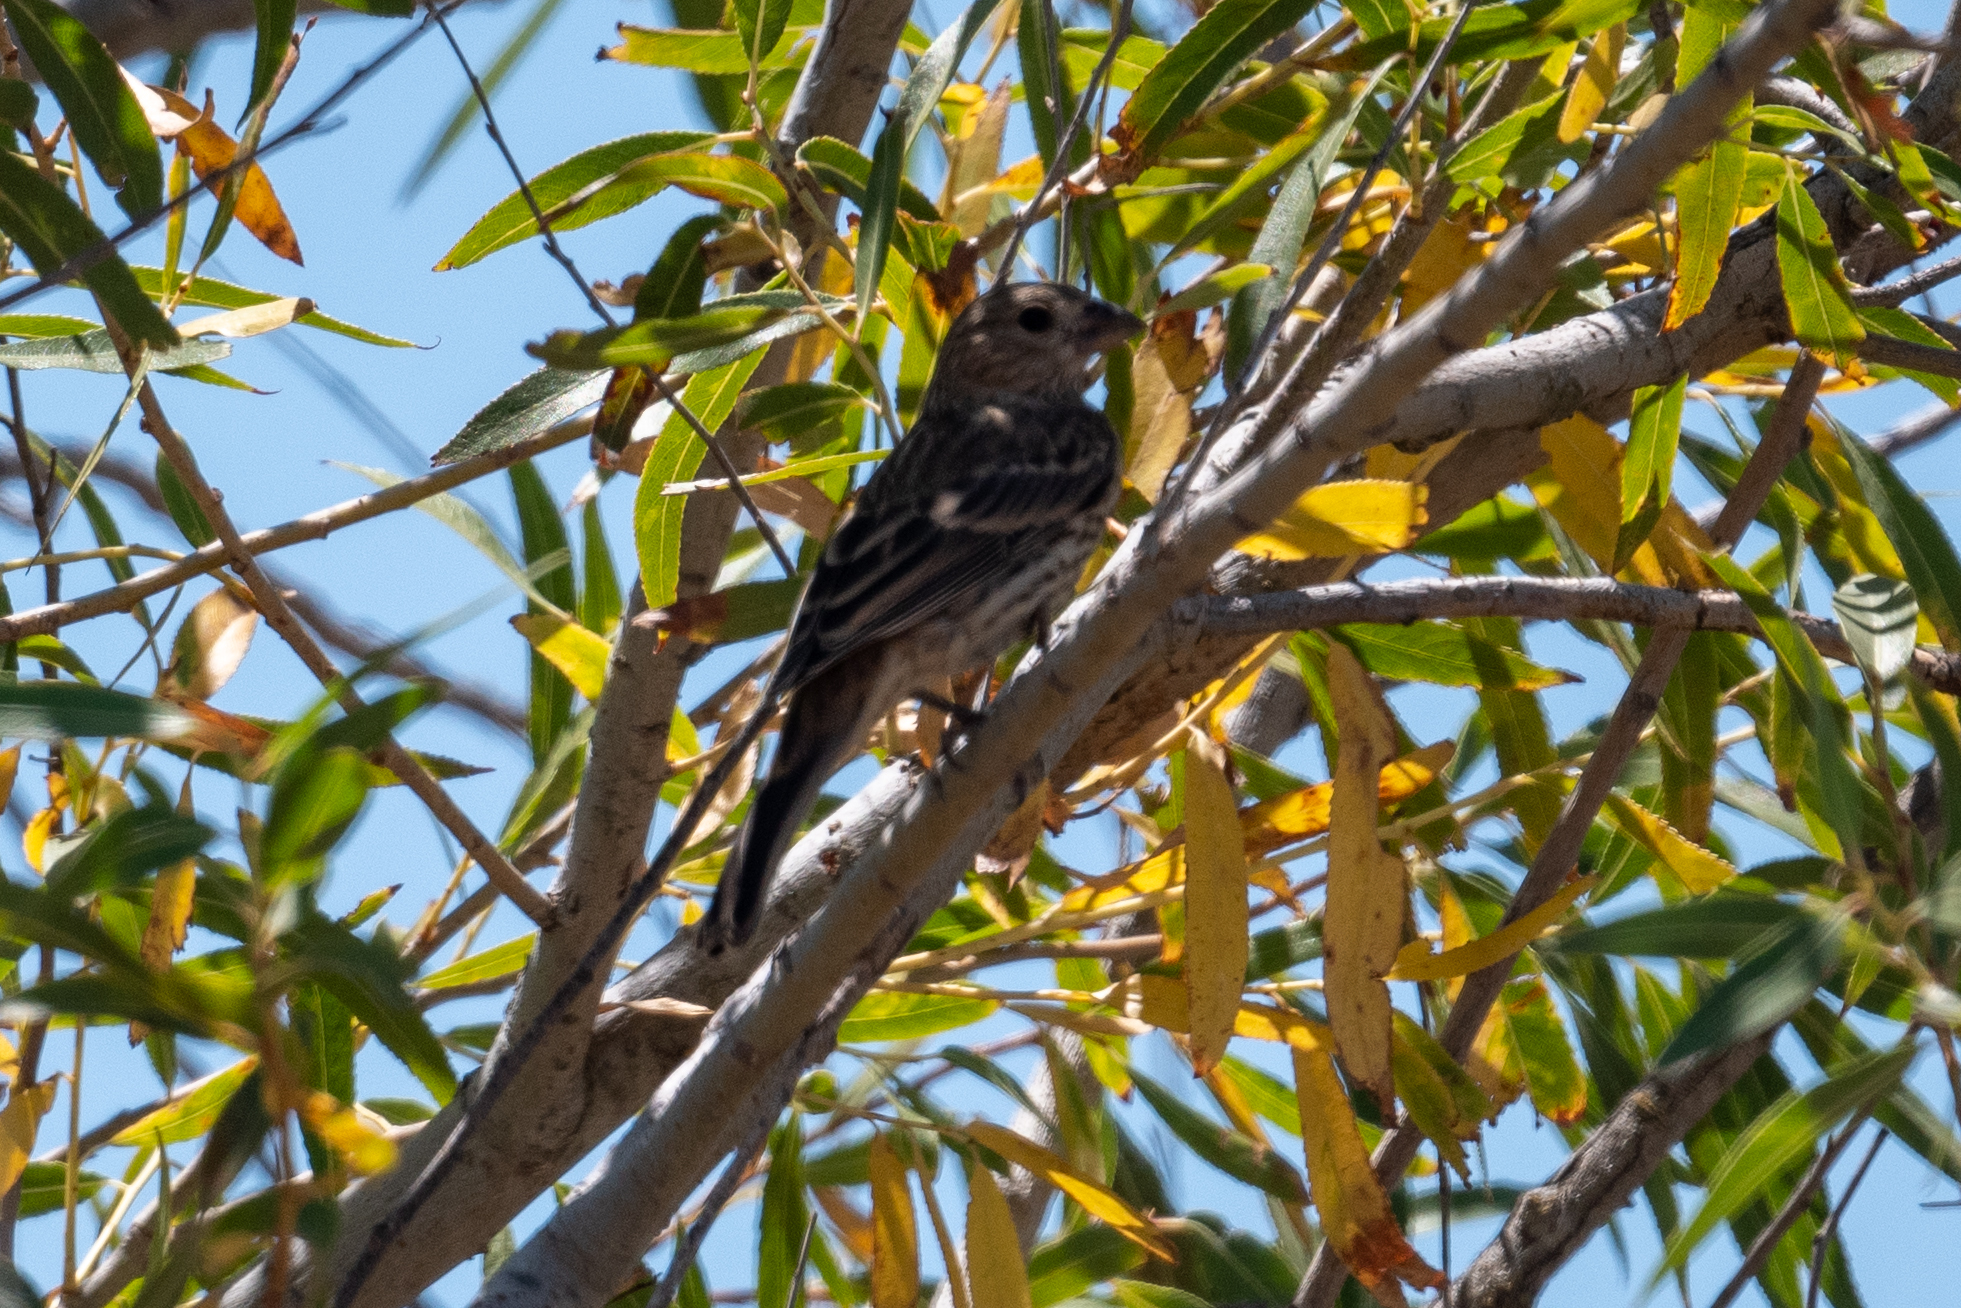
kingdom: Animalia
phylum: Chordata
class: Aves
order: Passeriformes
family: Fringillidae
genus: Haemorhous
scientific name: Haemorhous mexicanus
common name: House finch
